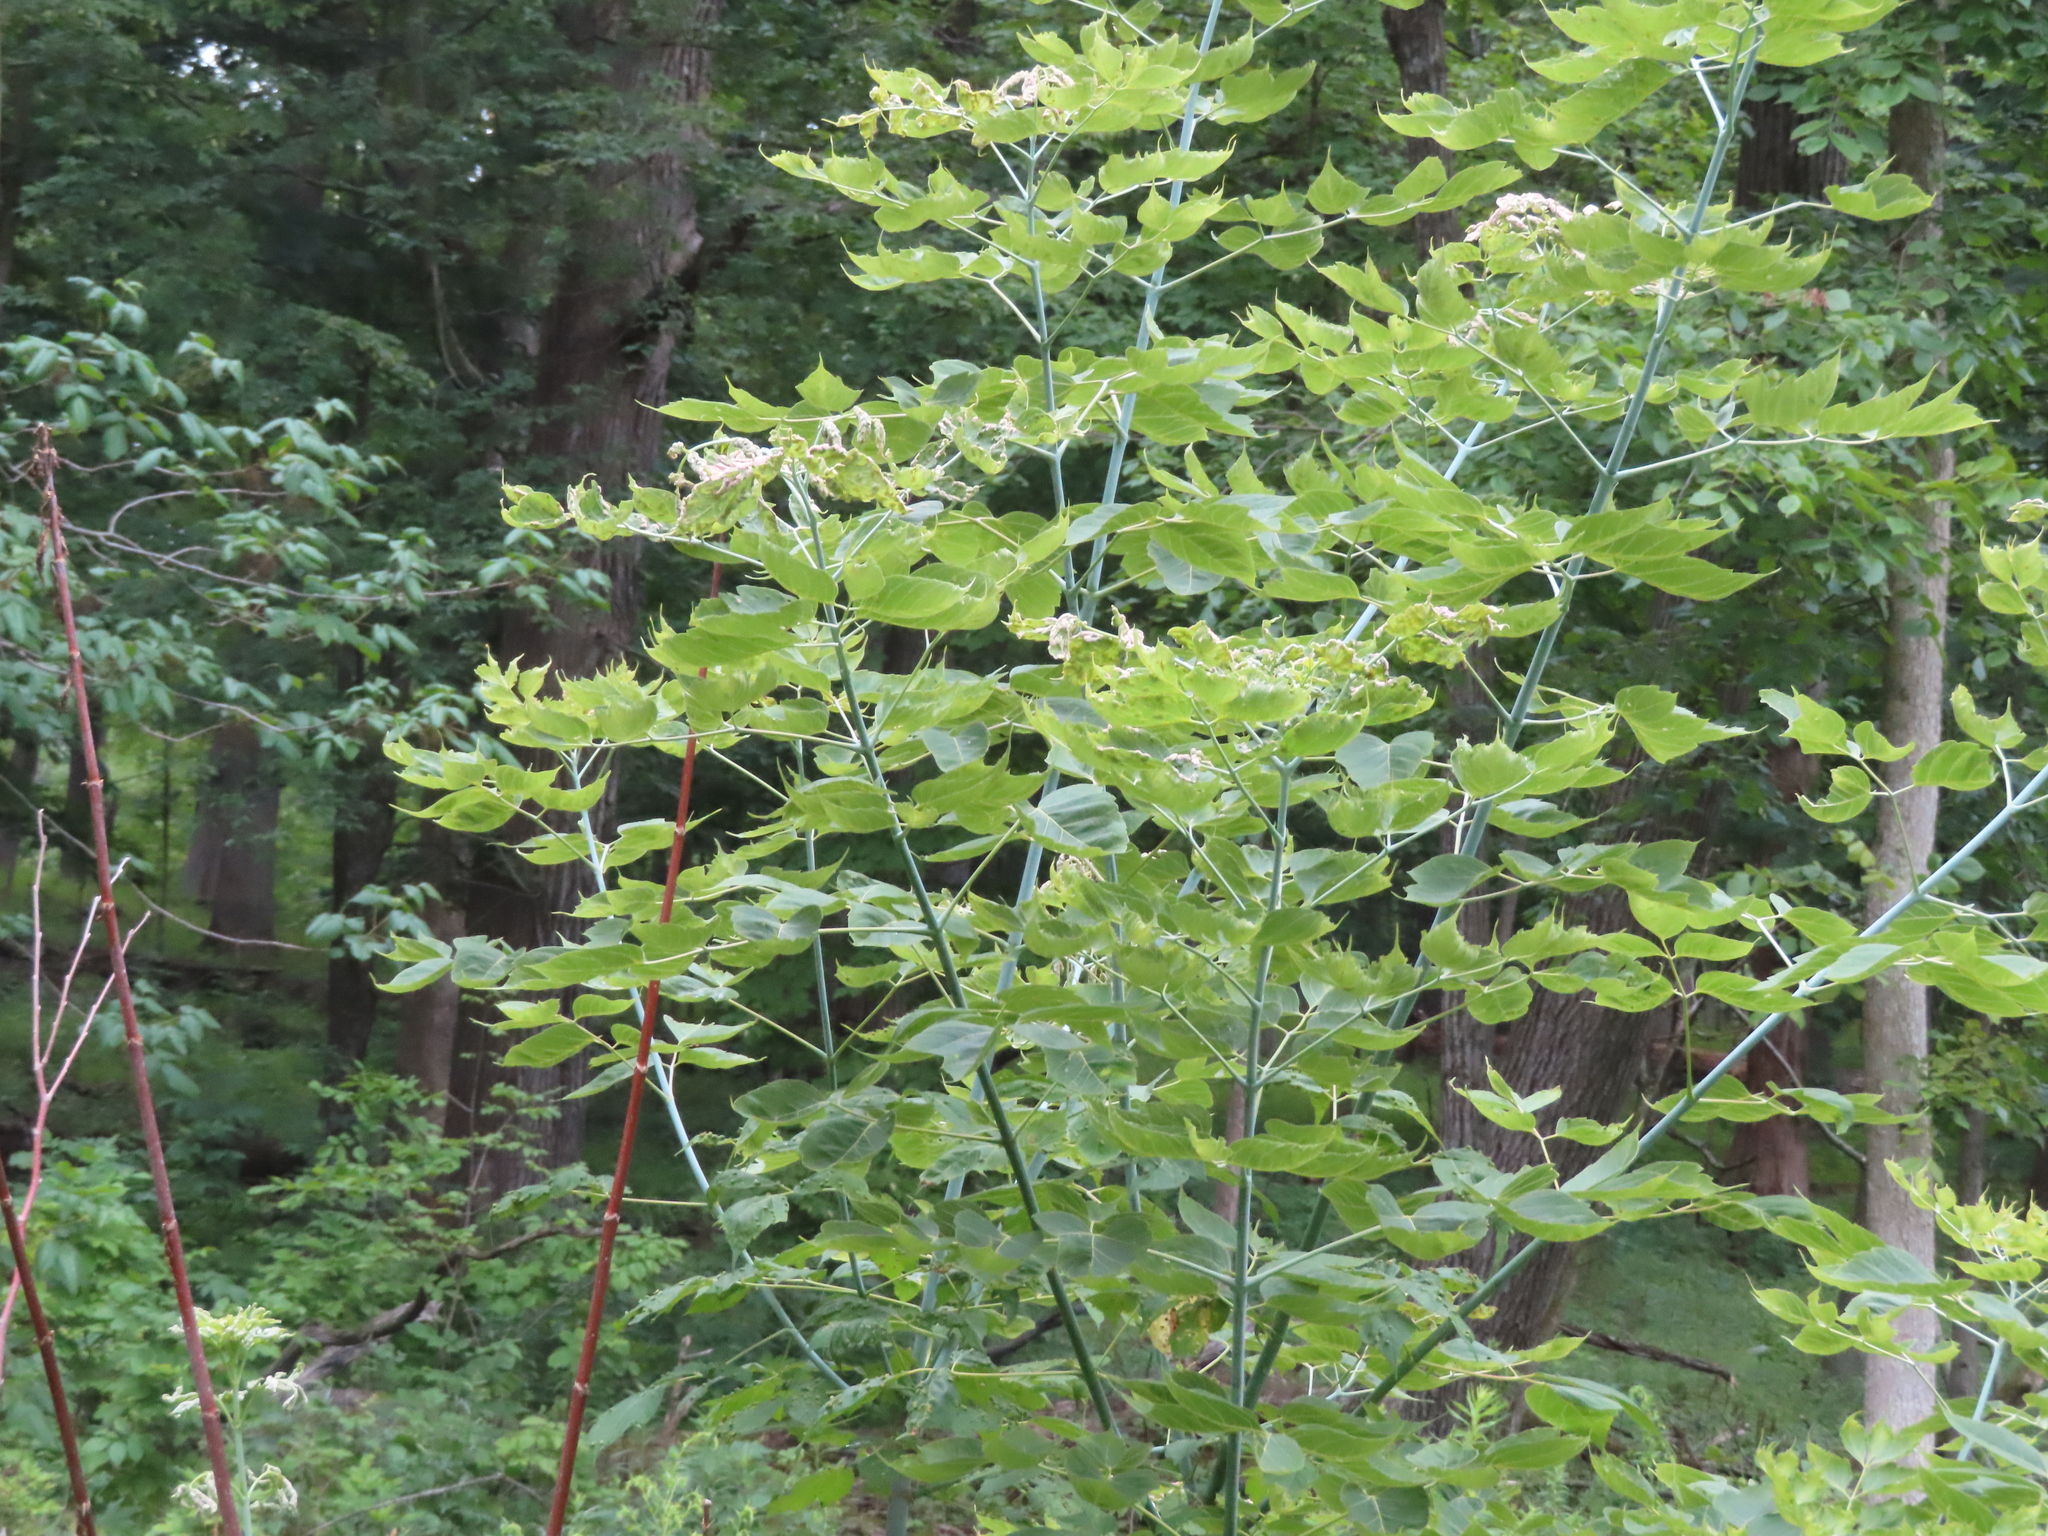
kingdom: Plantae
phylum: Tracheophyta
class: Magnoliopsida
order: Sapindales
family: Sapindaceae
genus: Acer
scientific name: Acer negundo
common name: Ashleaf maple
